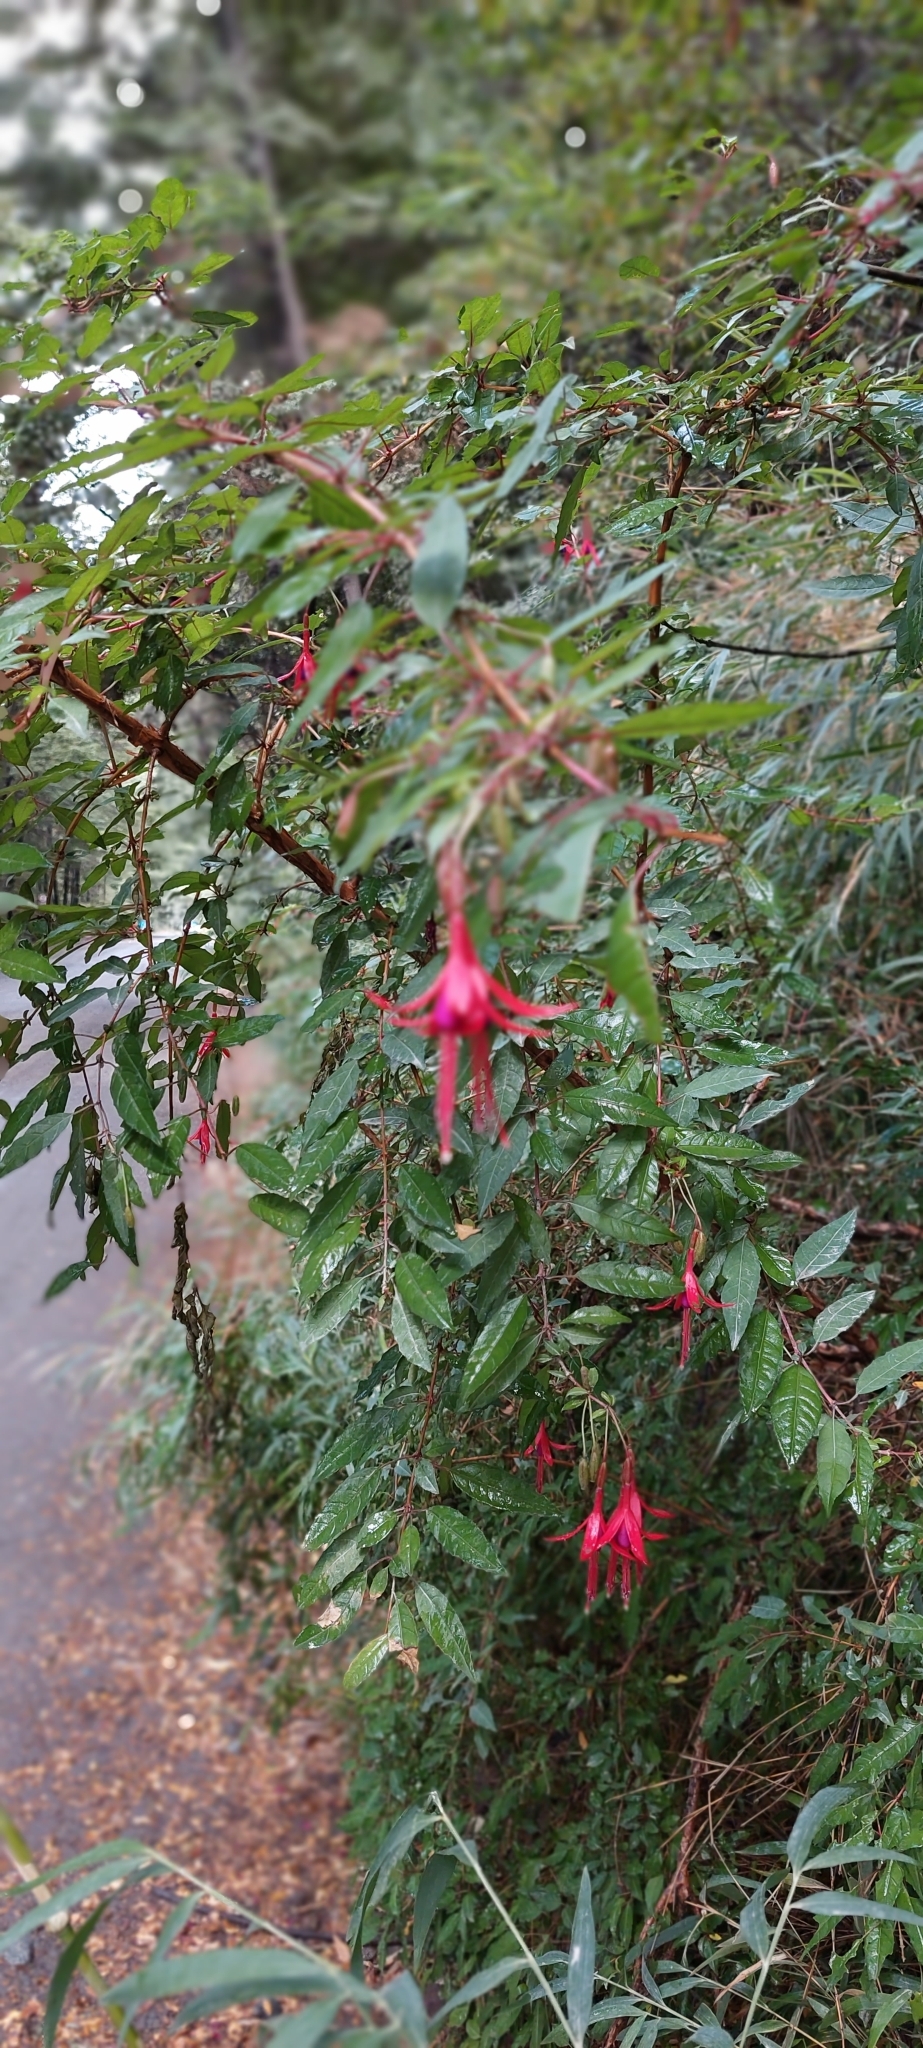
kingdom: Plantae
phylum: Tracheophyta
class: Magnoliopsida
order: Myrtales
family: Onagraceae
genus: Fuchsia
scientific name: Fuchsia magellanica
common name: Hardy fuchsia
